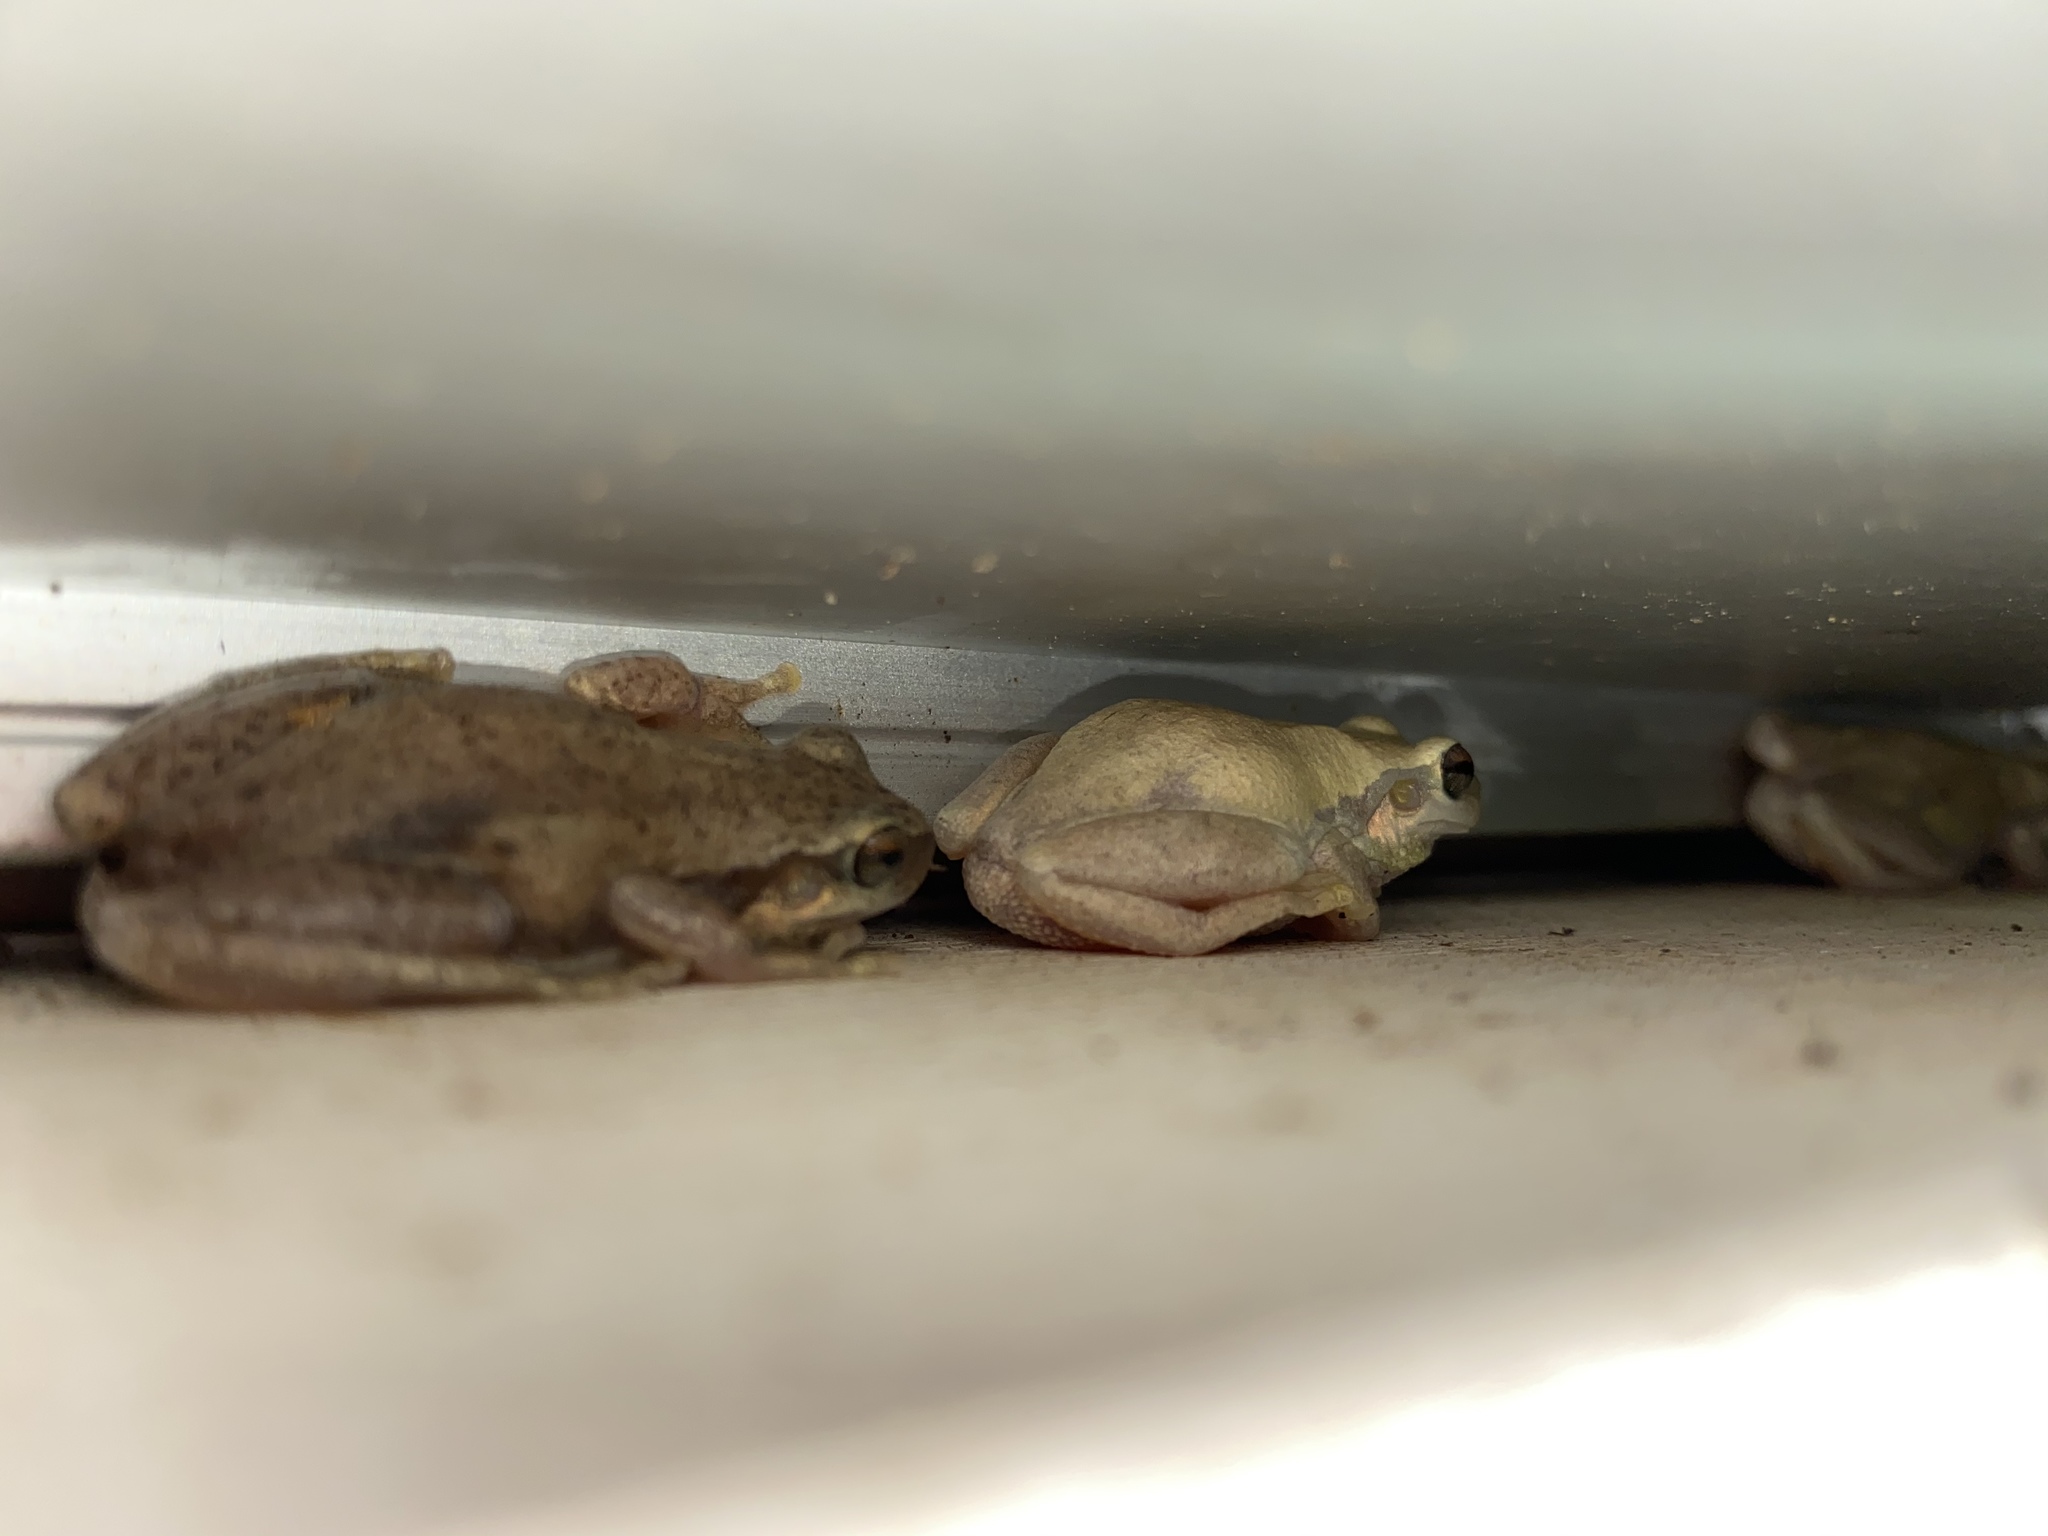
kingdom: Animalia
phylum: Chordata
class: Amphibia
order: Anura
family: Pelodryadidae
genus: Litoria
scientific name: Litoria rubella
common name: Desert tree frog
